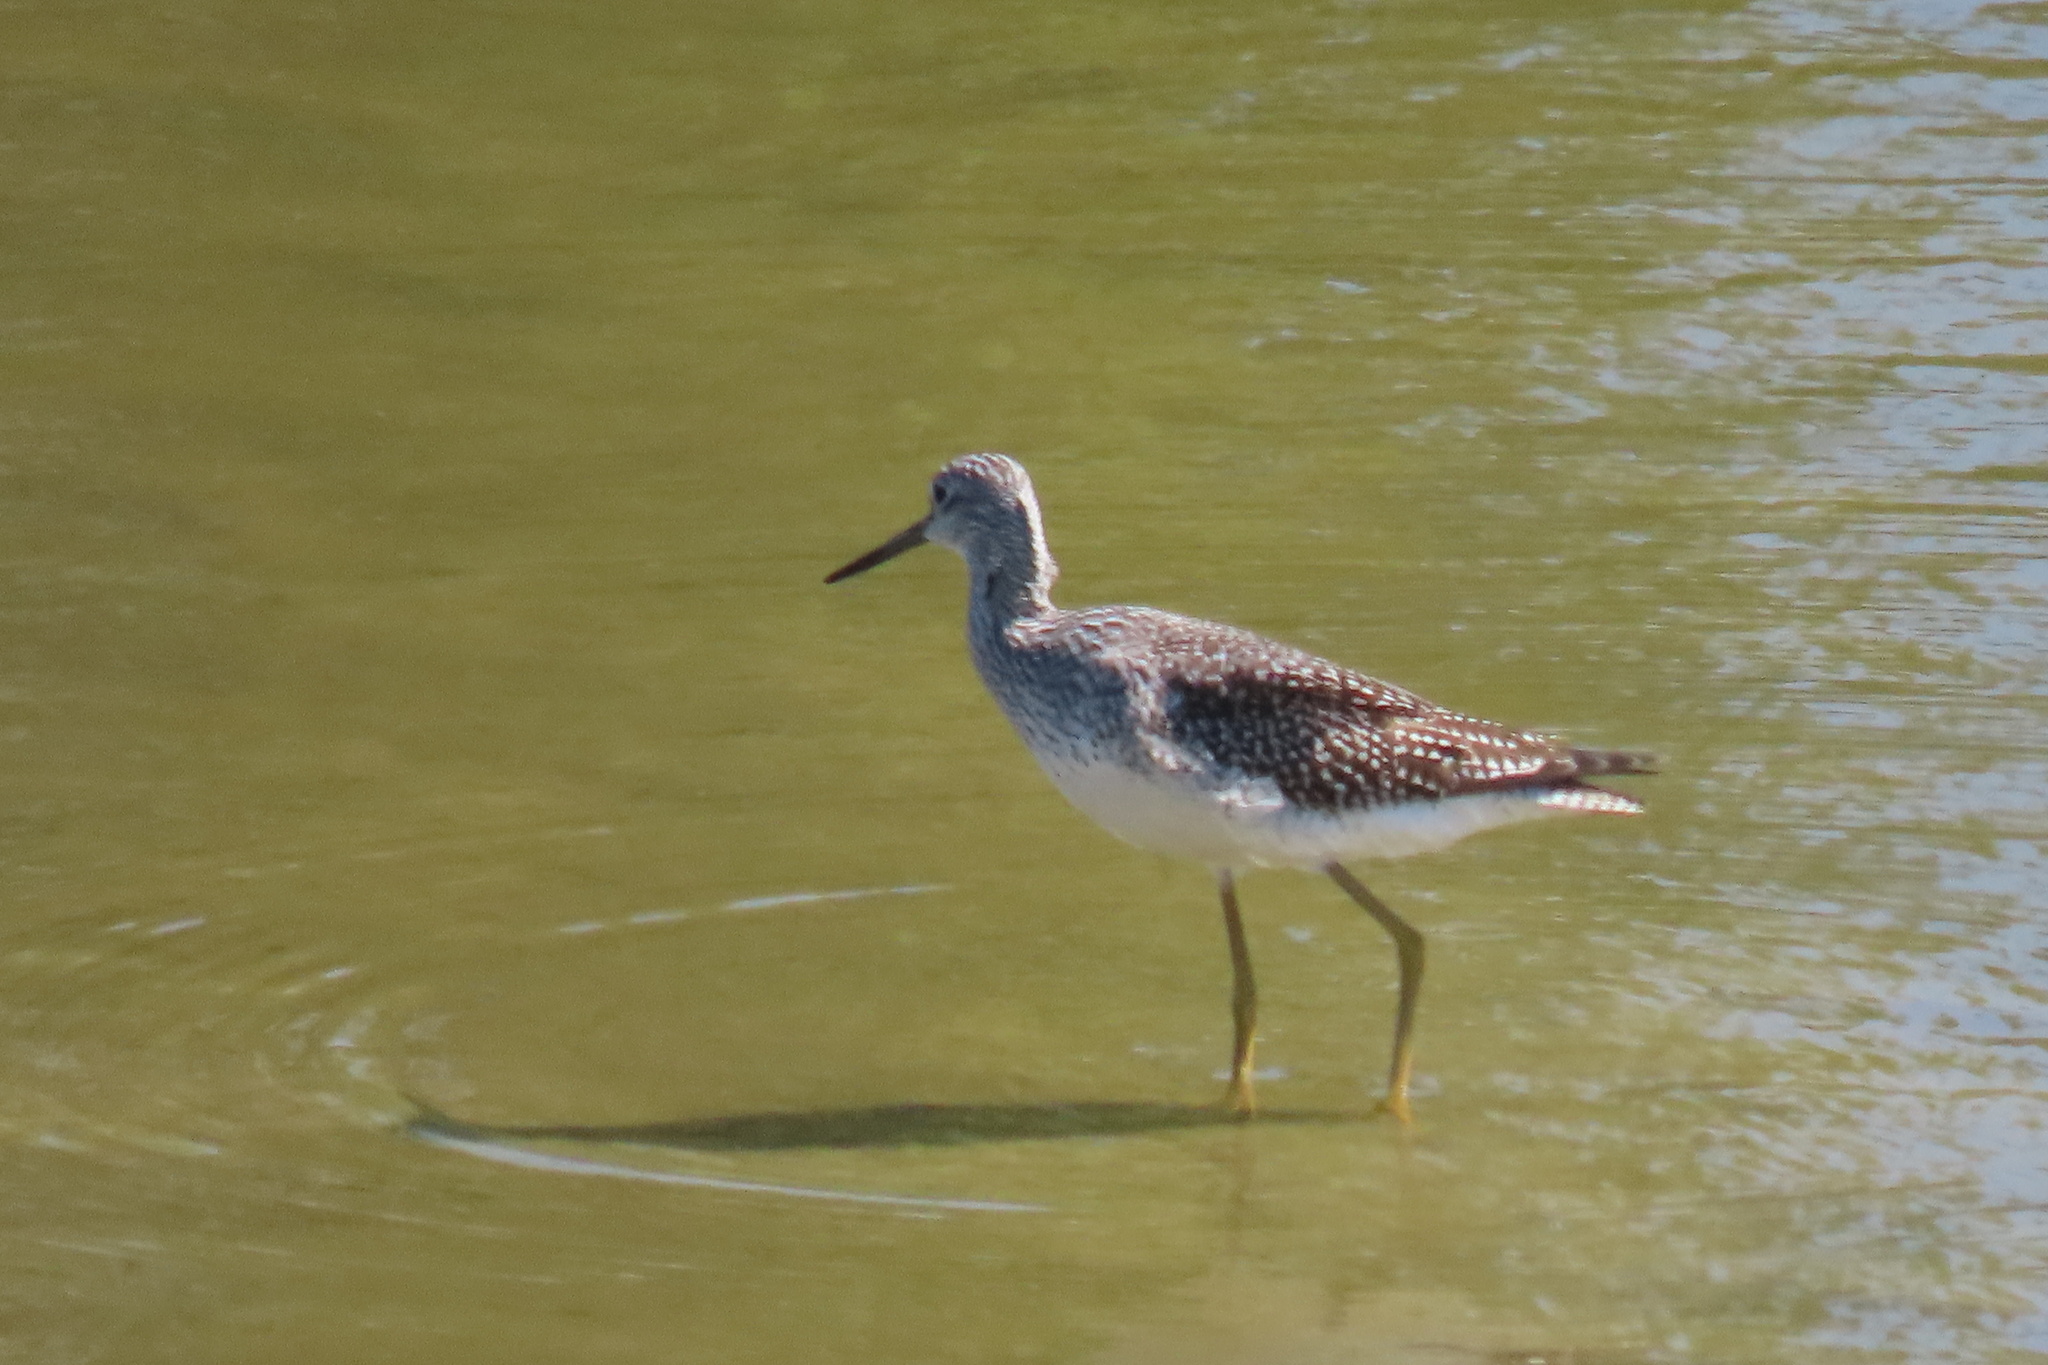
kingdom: Animalia
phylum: Chordata
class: Aves
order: Charadriiformes
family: Scolopacidae
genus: Tringa
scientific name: Tringa melanoleuca
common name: Greater yellowlegs
